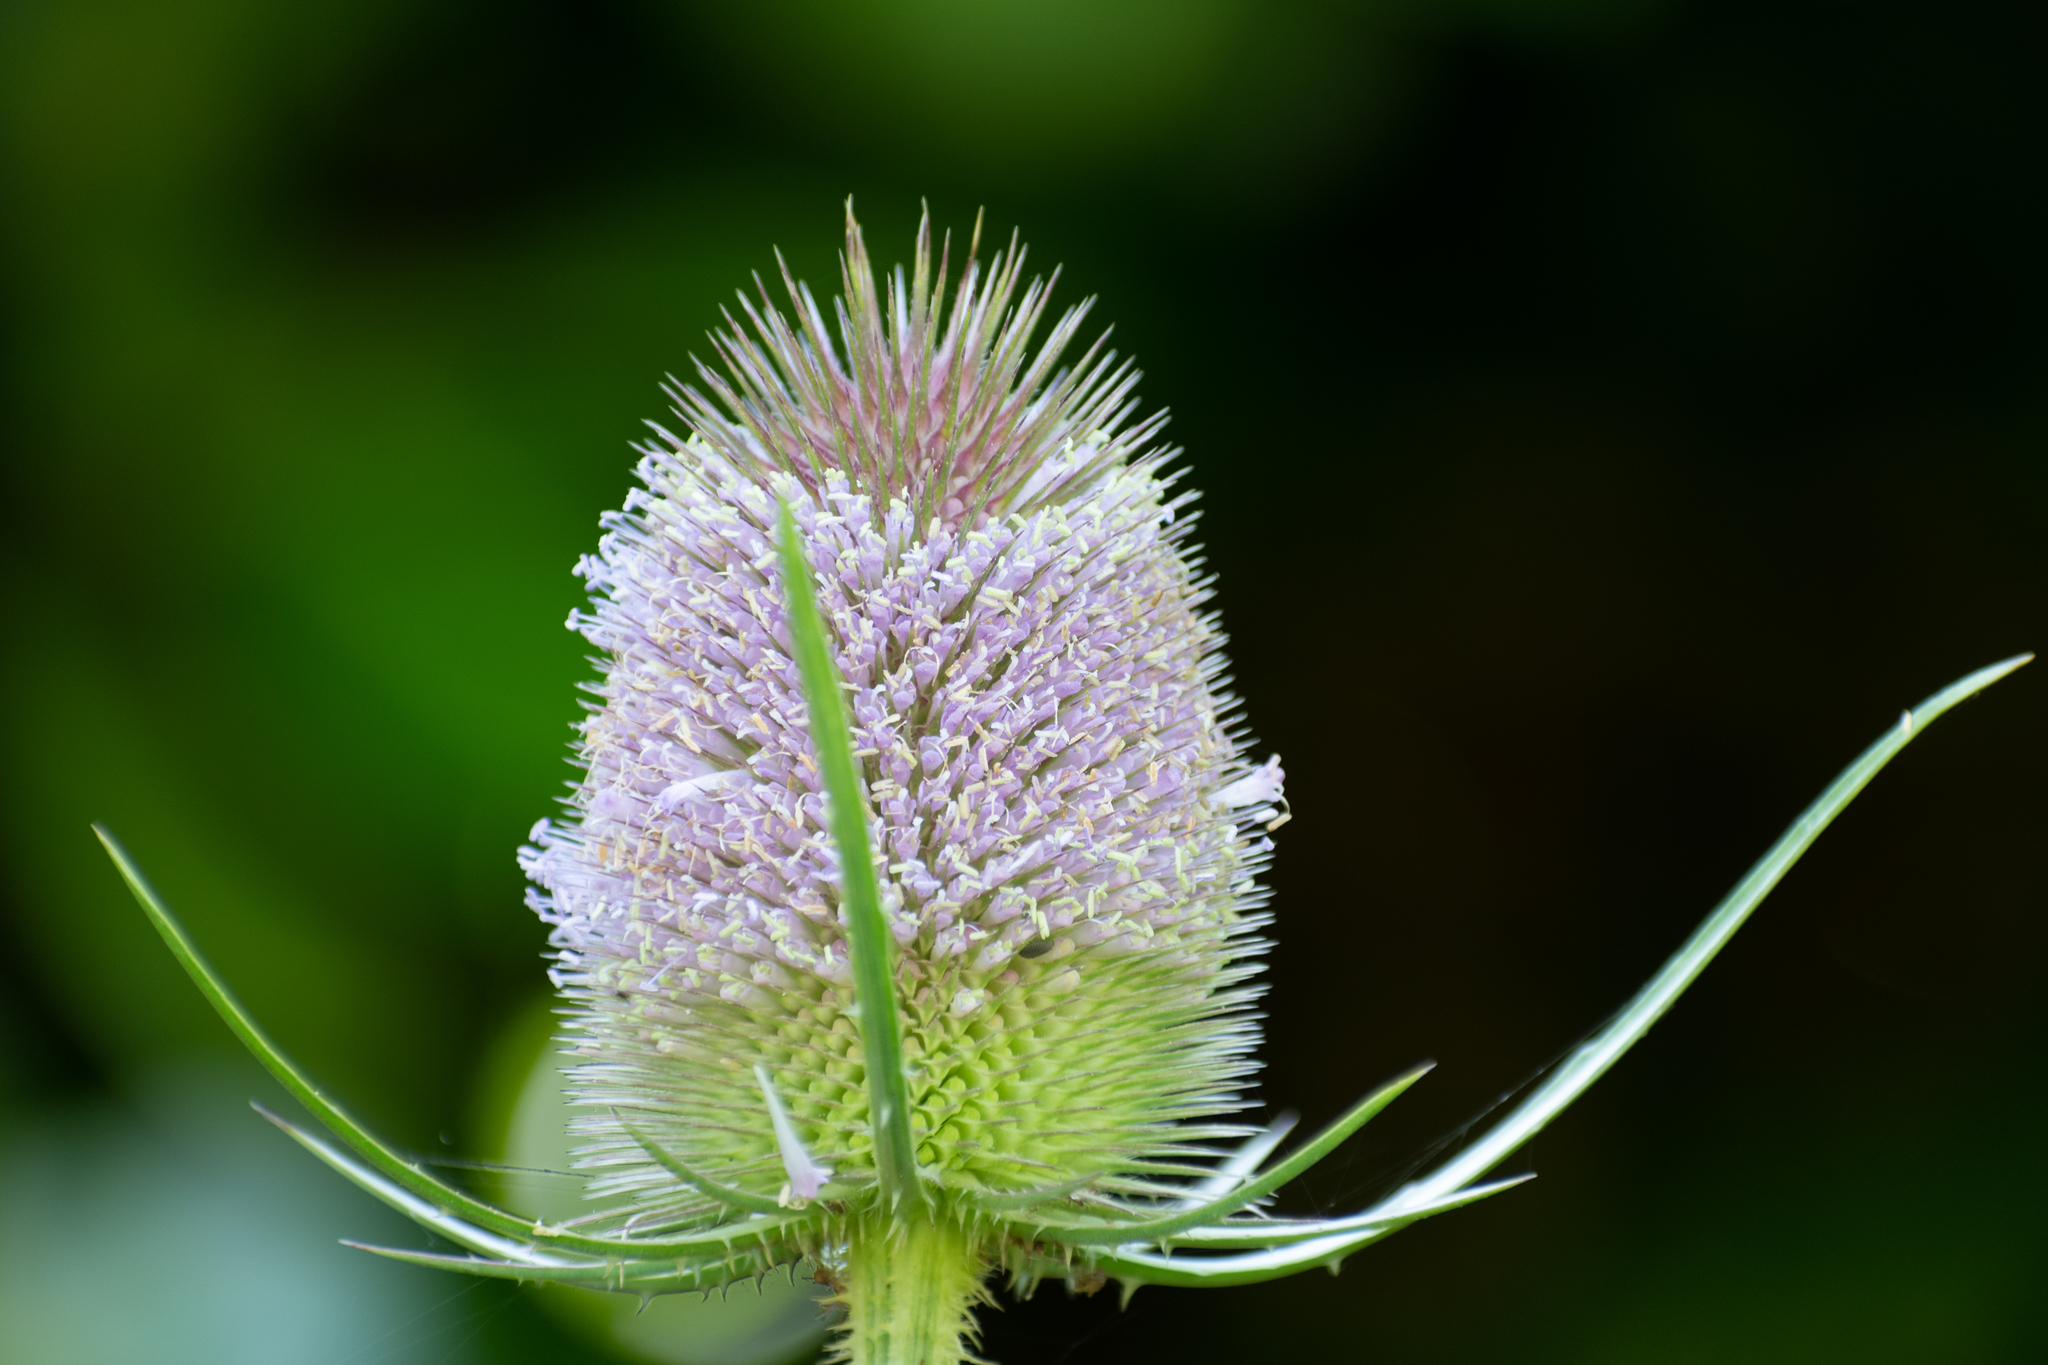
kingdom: Plantae
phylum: Tracheophyta
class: Magnoliopsida
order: Dipsacales
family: Caprifoliaceae
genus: Dipsacus
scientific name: Dipsacus fullonum
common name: Teasel
